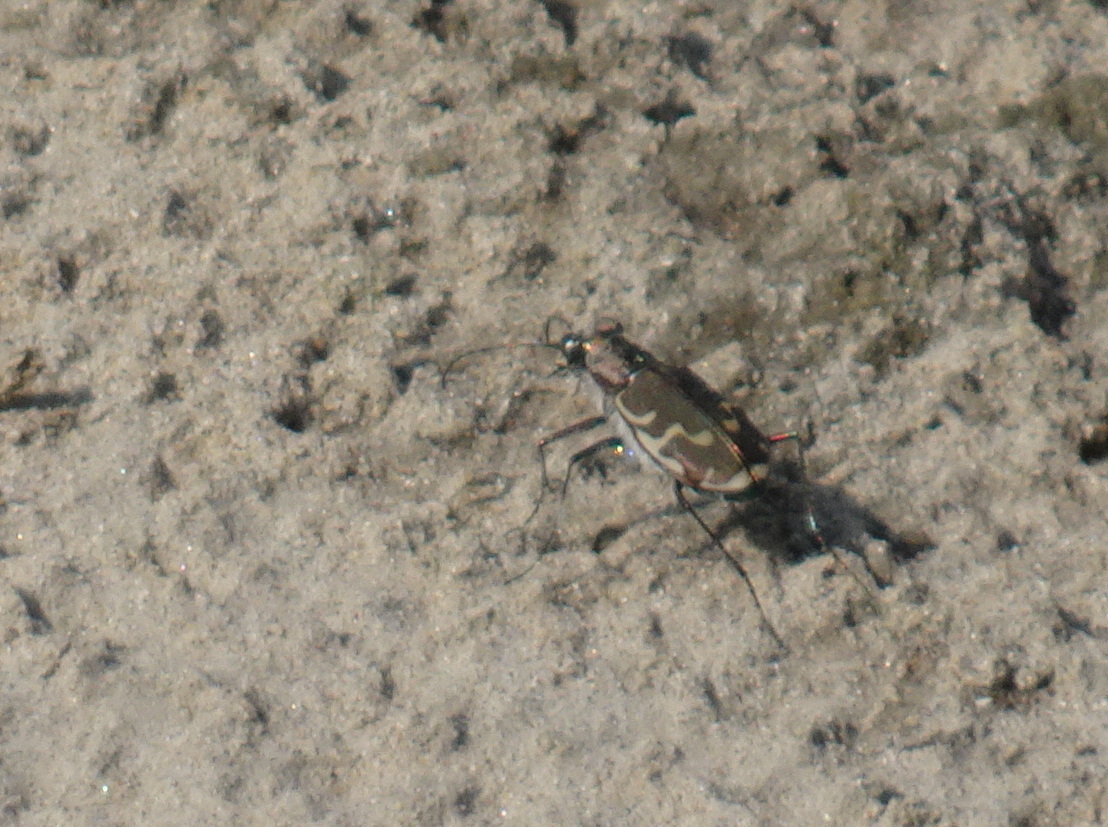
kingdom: Animalia
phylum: Arthropoda
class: Insecta
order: Coleoptera
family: Carabidae
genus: Cicindela
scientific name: Cicindela repanda
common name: Bronzed tiger beetle
